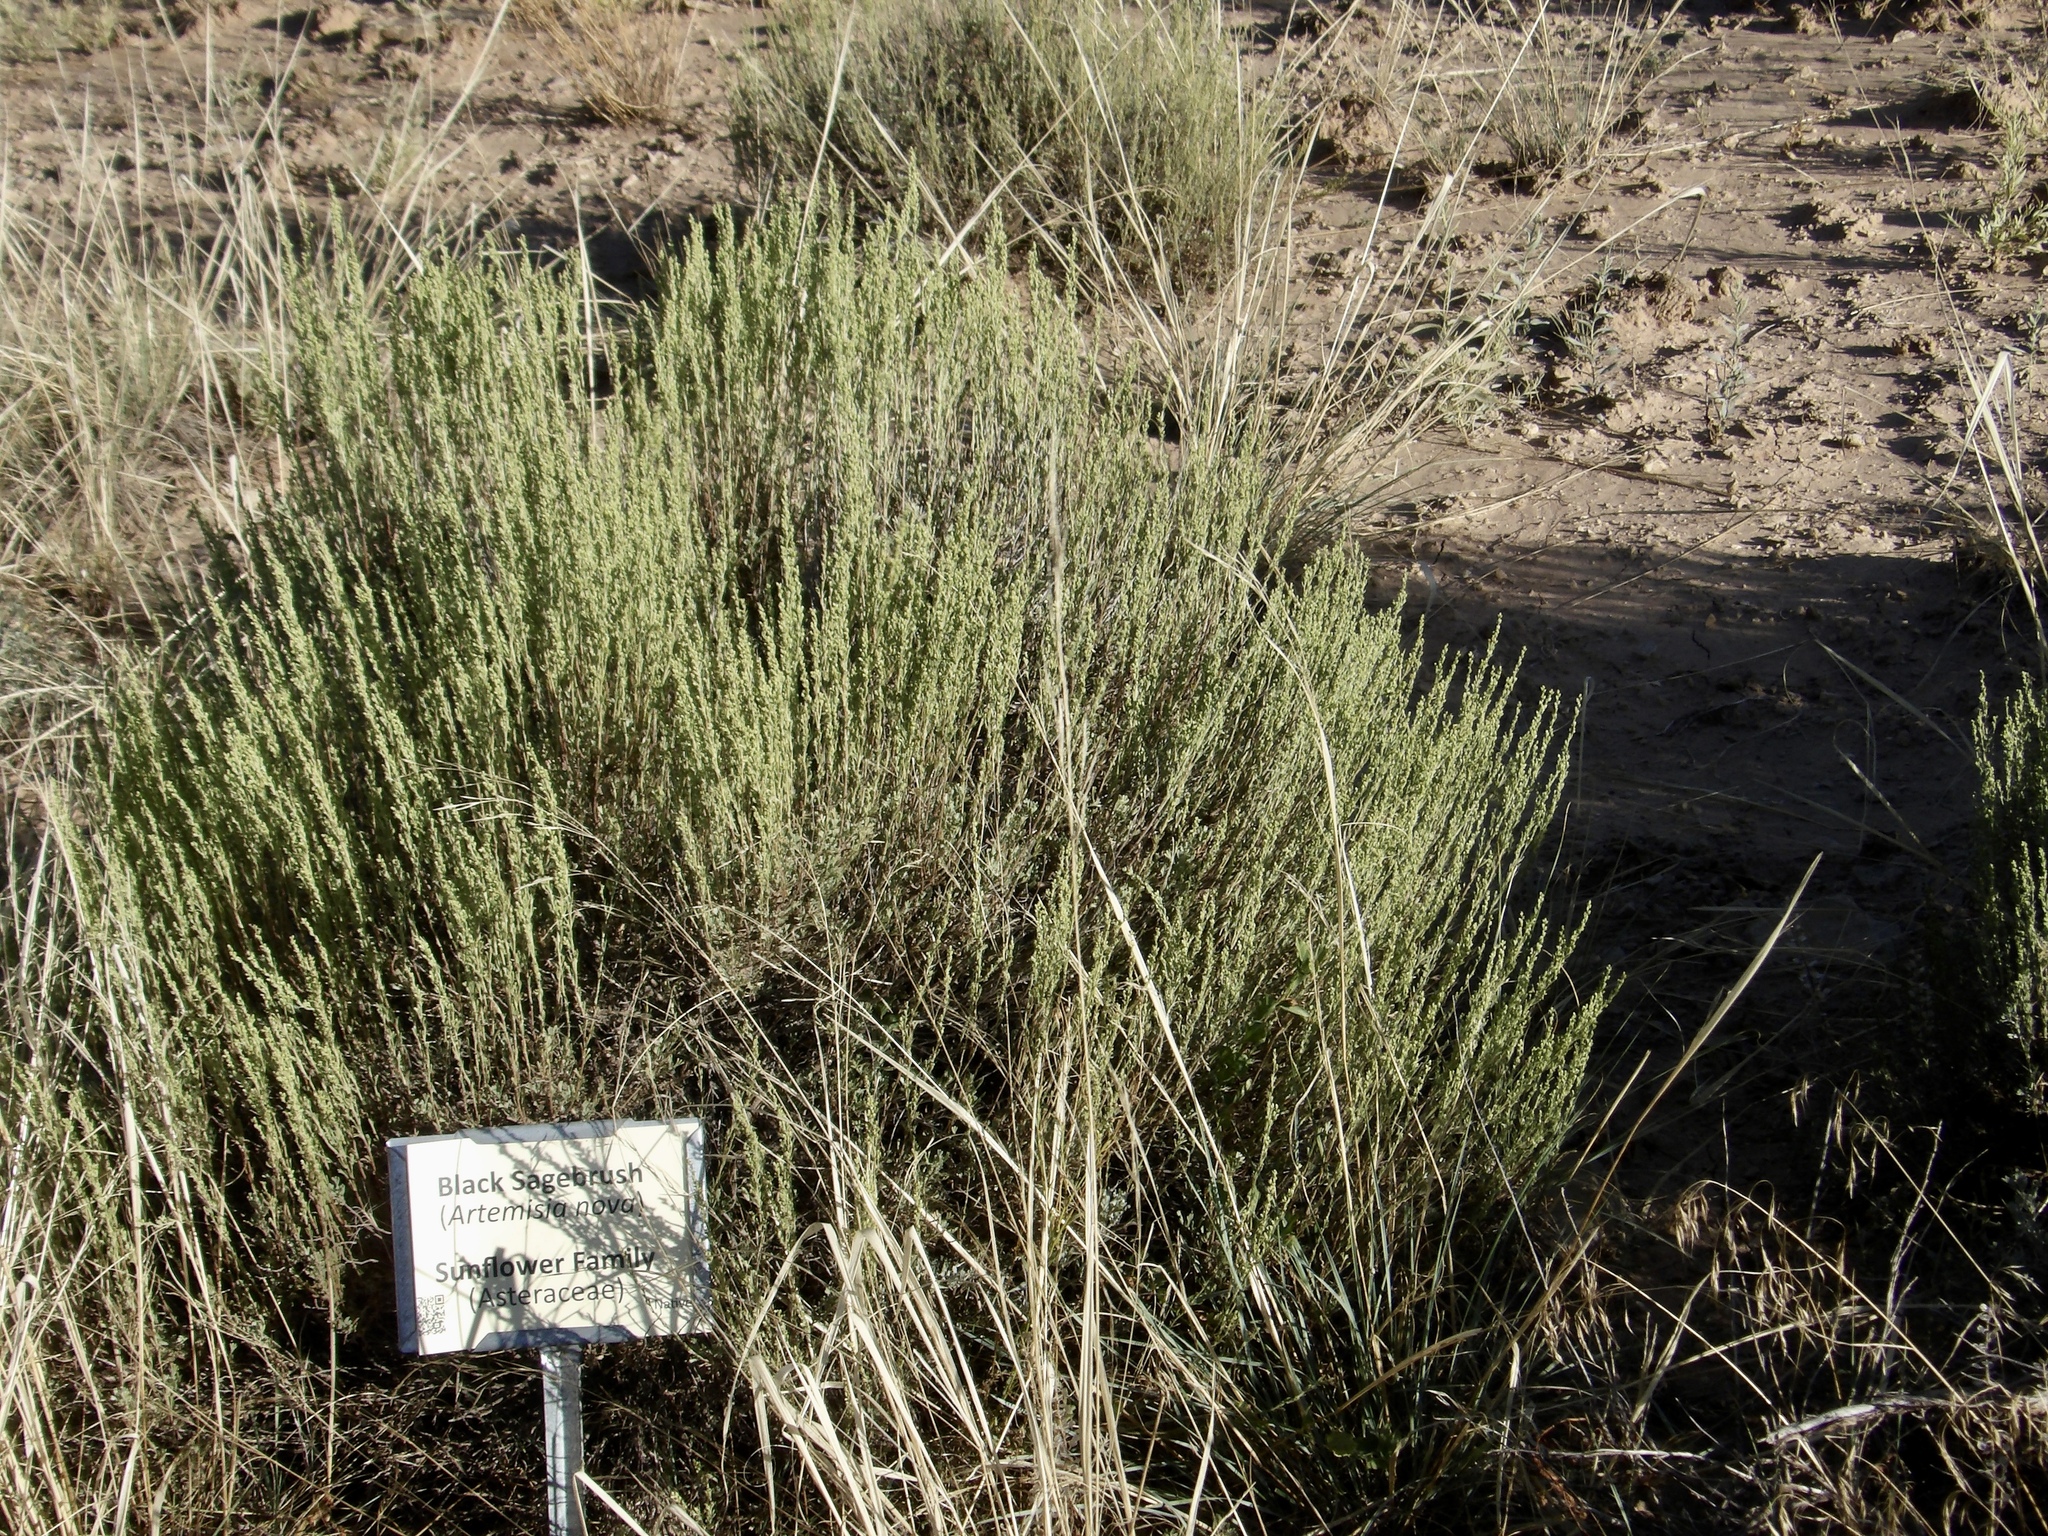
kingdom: Plantae
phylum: Tracheophyta
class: Magnoliopsida
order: Asterales
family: Asteraceae
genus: Artemisia
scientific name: Artemisia nova
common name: Black-sage
